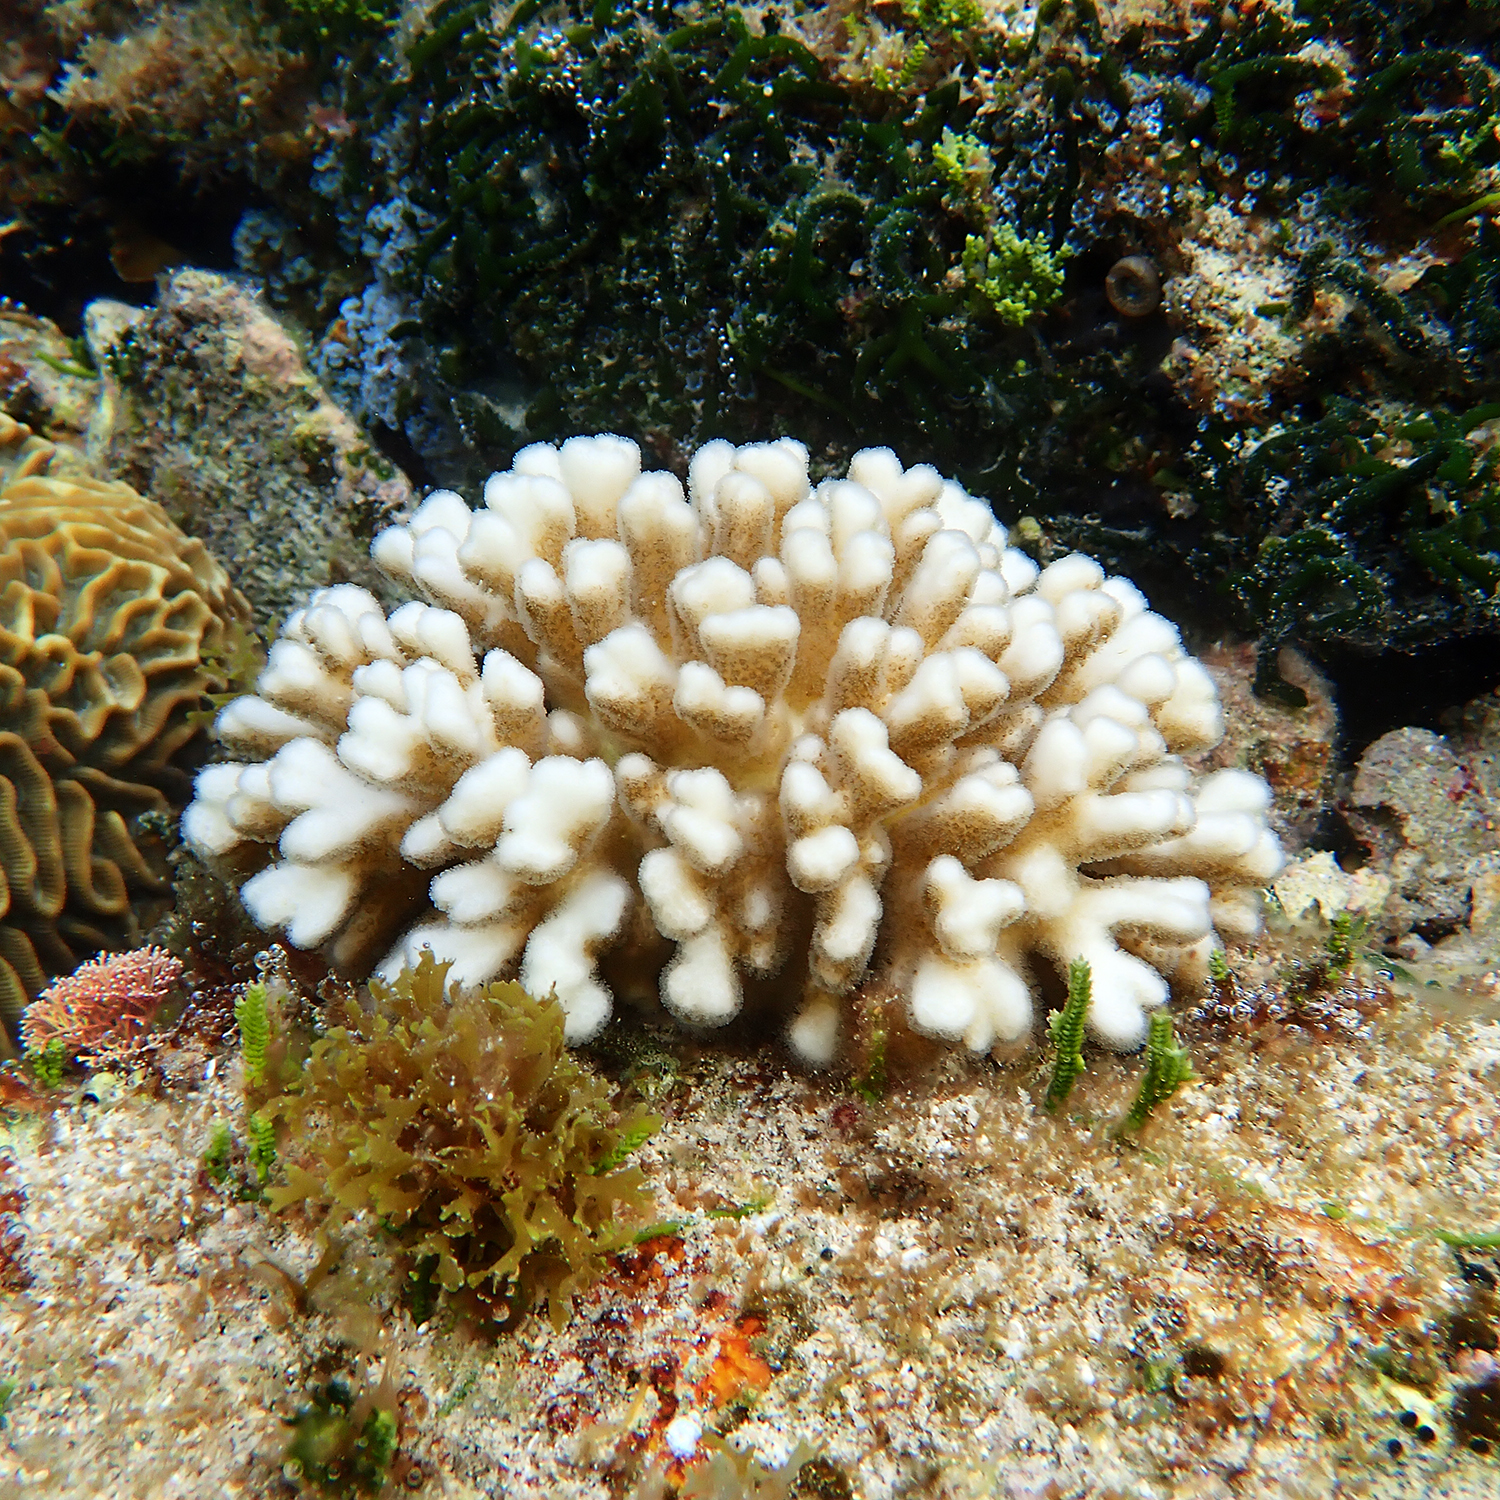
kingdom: Animalia
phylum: Cnidaria
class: Anthozoa
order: Scleractinia
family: Pocilloporidae
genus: Pocillopora
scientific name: Pocillopora damicornis
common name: Cauliflower coral
